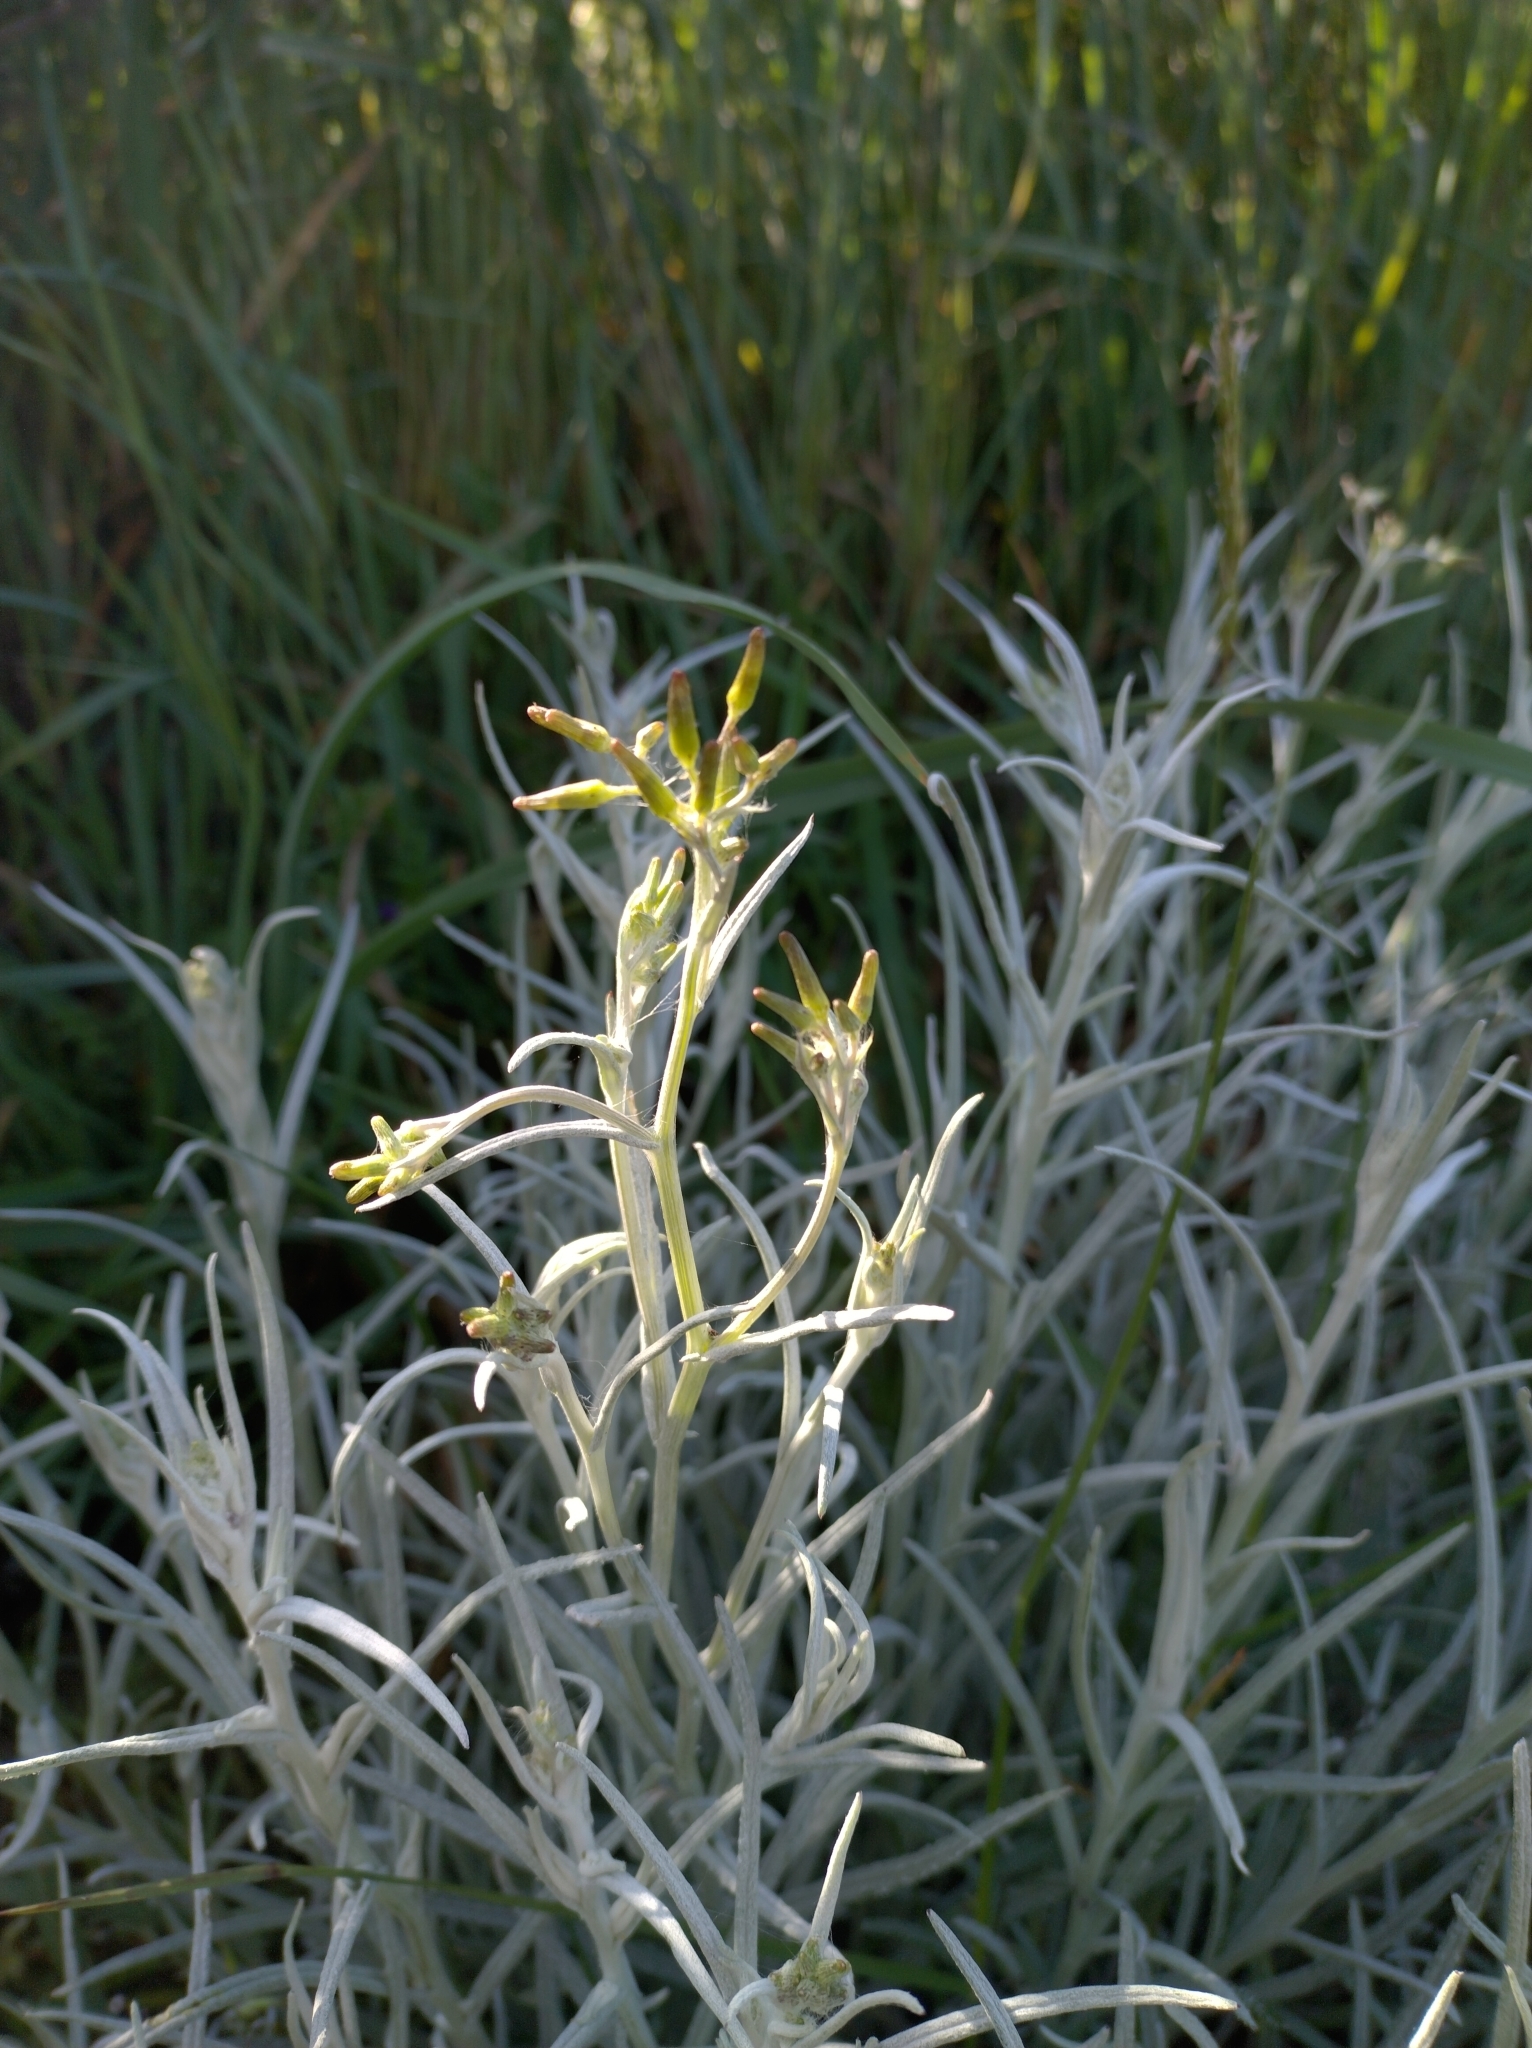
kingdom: Plantae
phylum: Tracheophyta
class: Magnoliopsida
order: Asterales
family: Asteraceae
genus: Senecio
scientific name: Senecio quadridentatus
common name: Cotton fireweed
